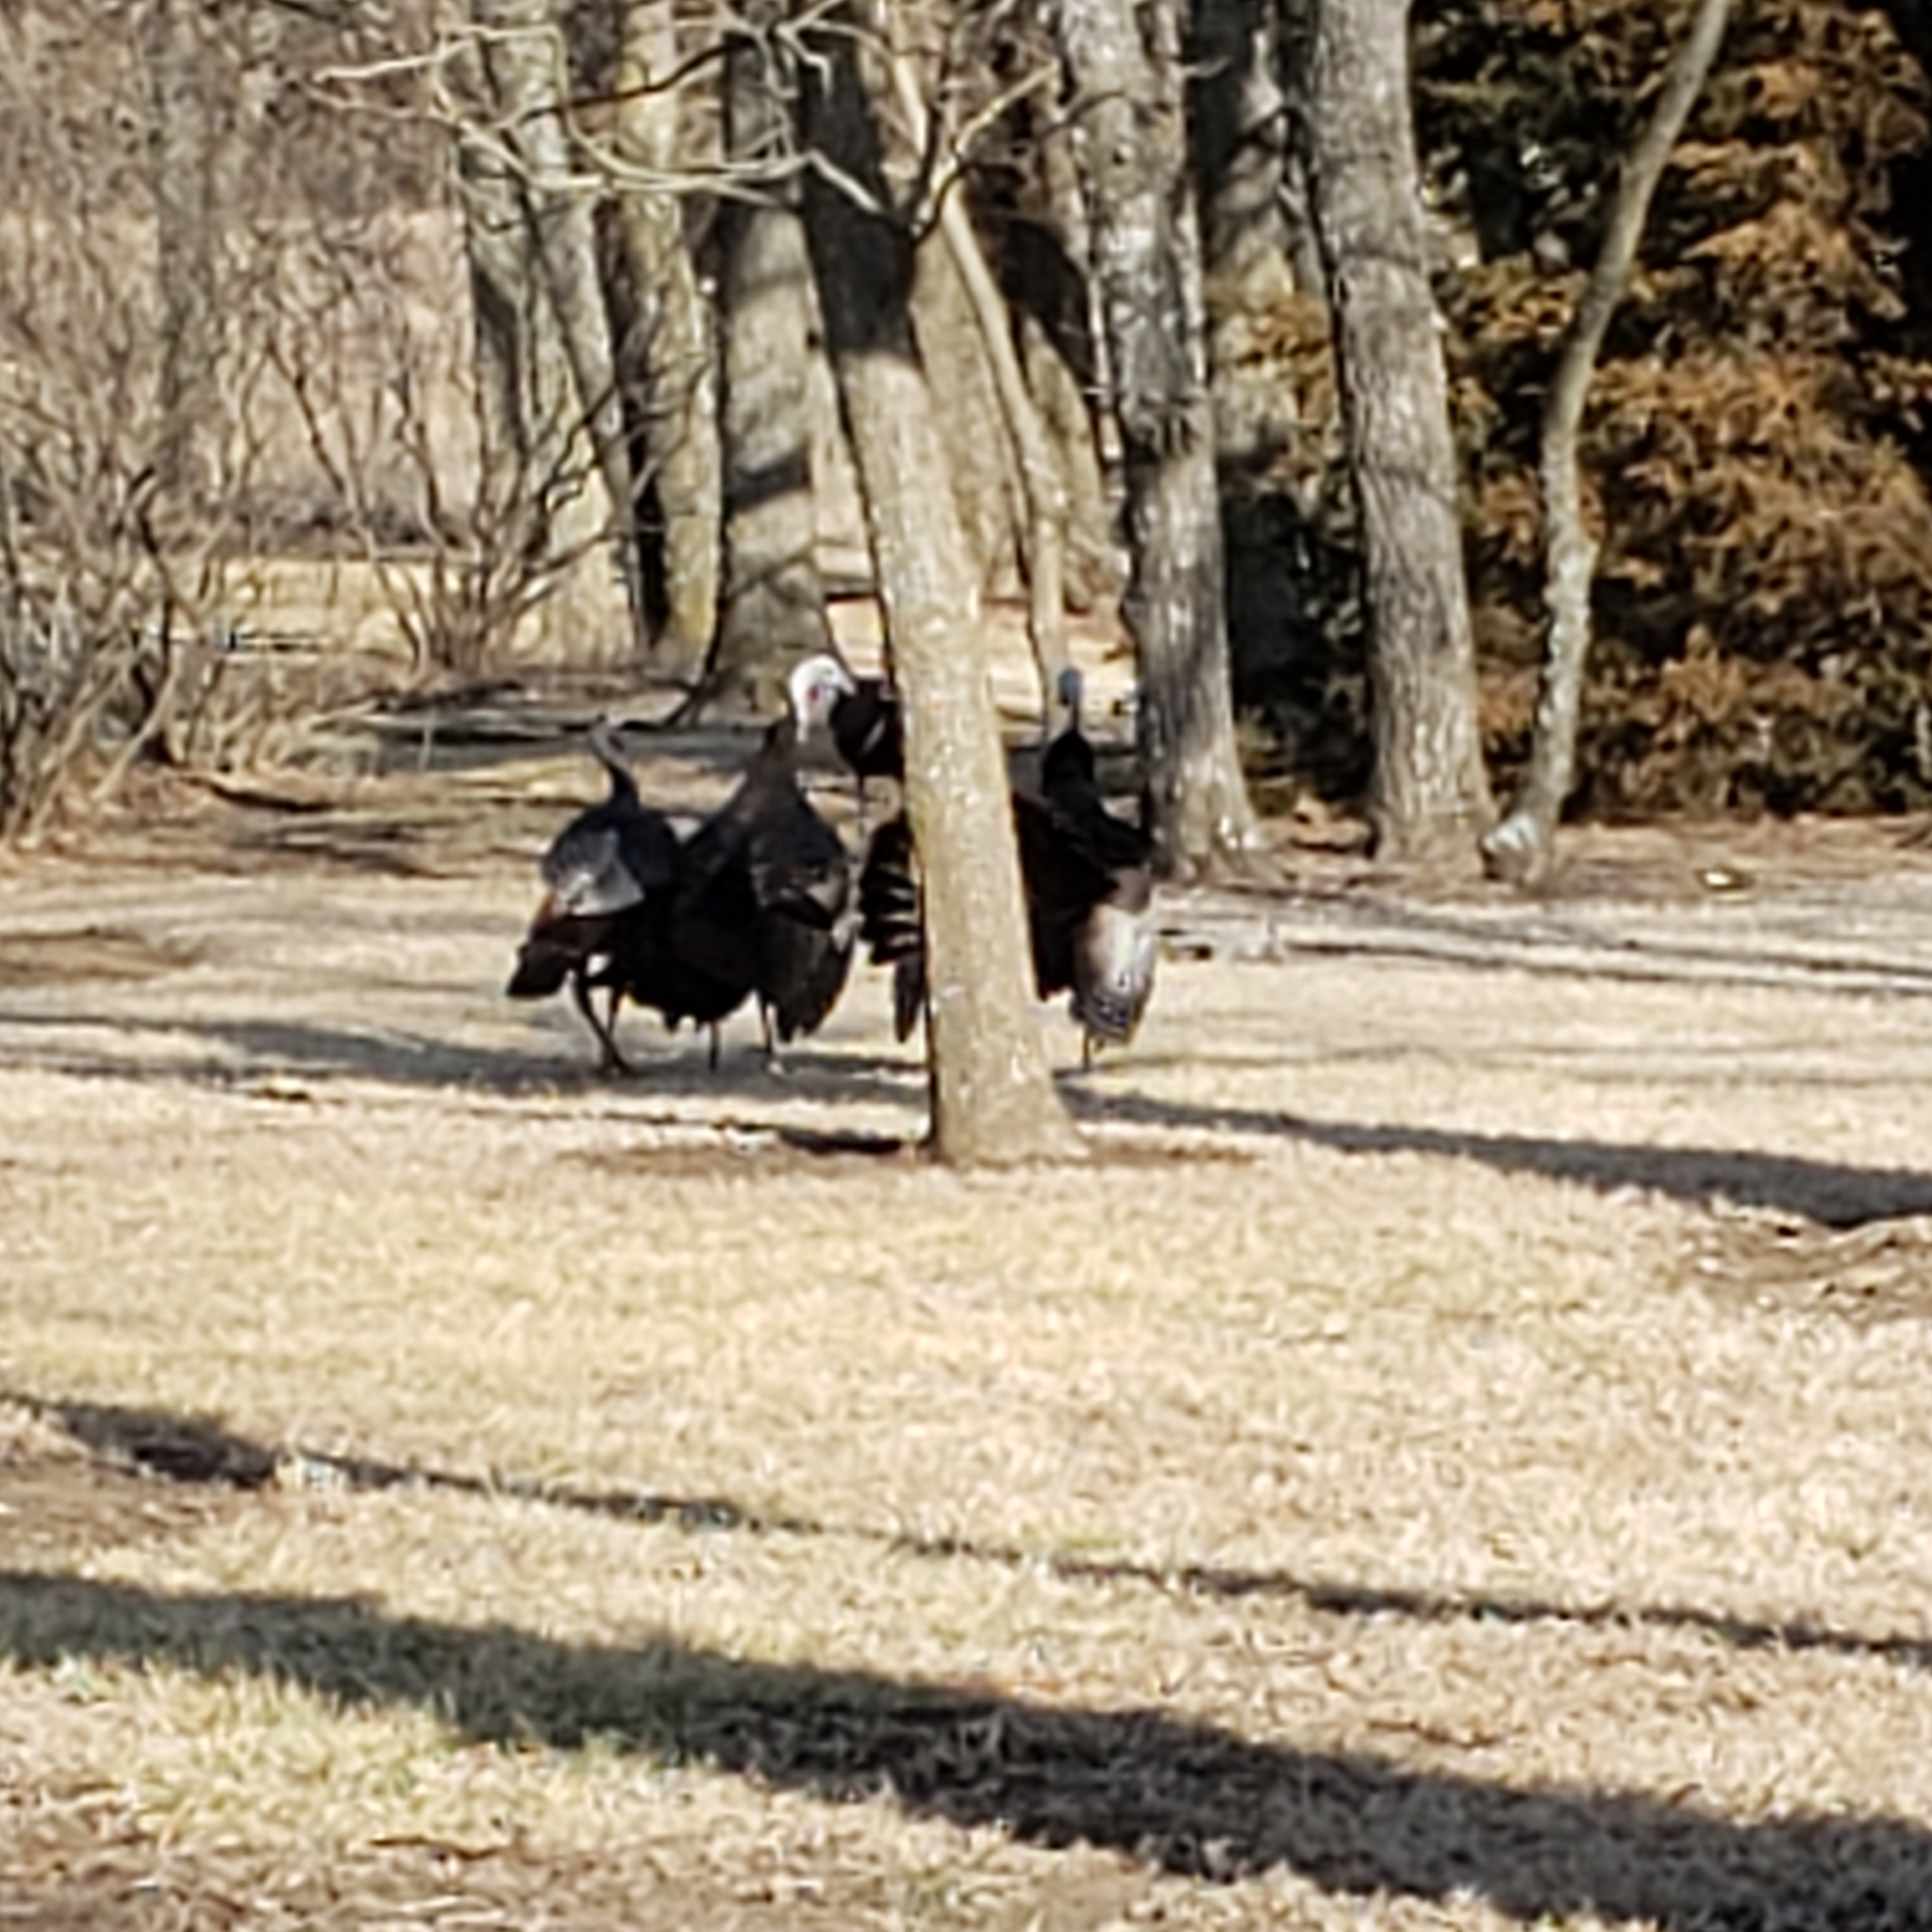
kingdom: Animalia
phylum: Chordata
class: Aves
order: Galliformes
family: Phasianidae
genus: Meleagris
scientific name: Meleagris gallopavo
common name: Wild turkey
